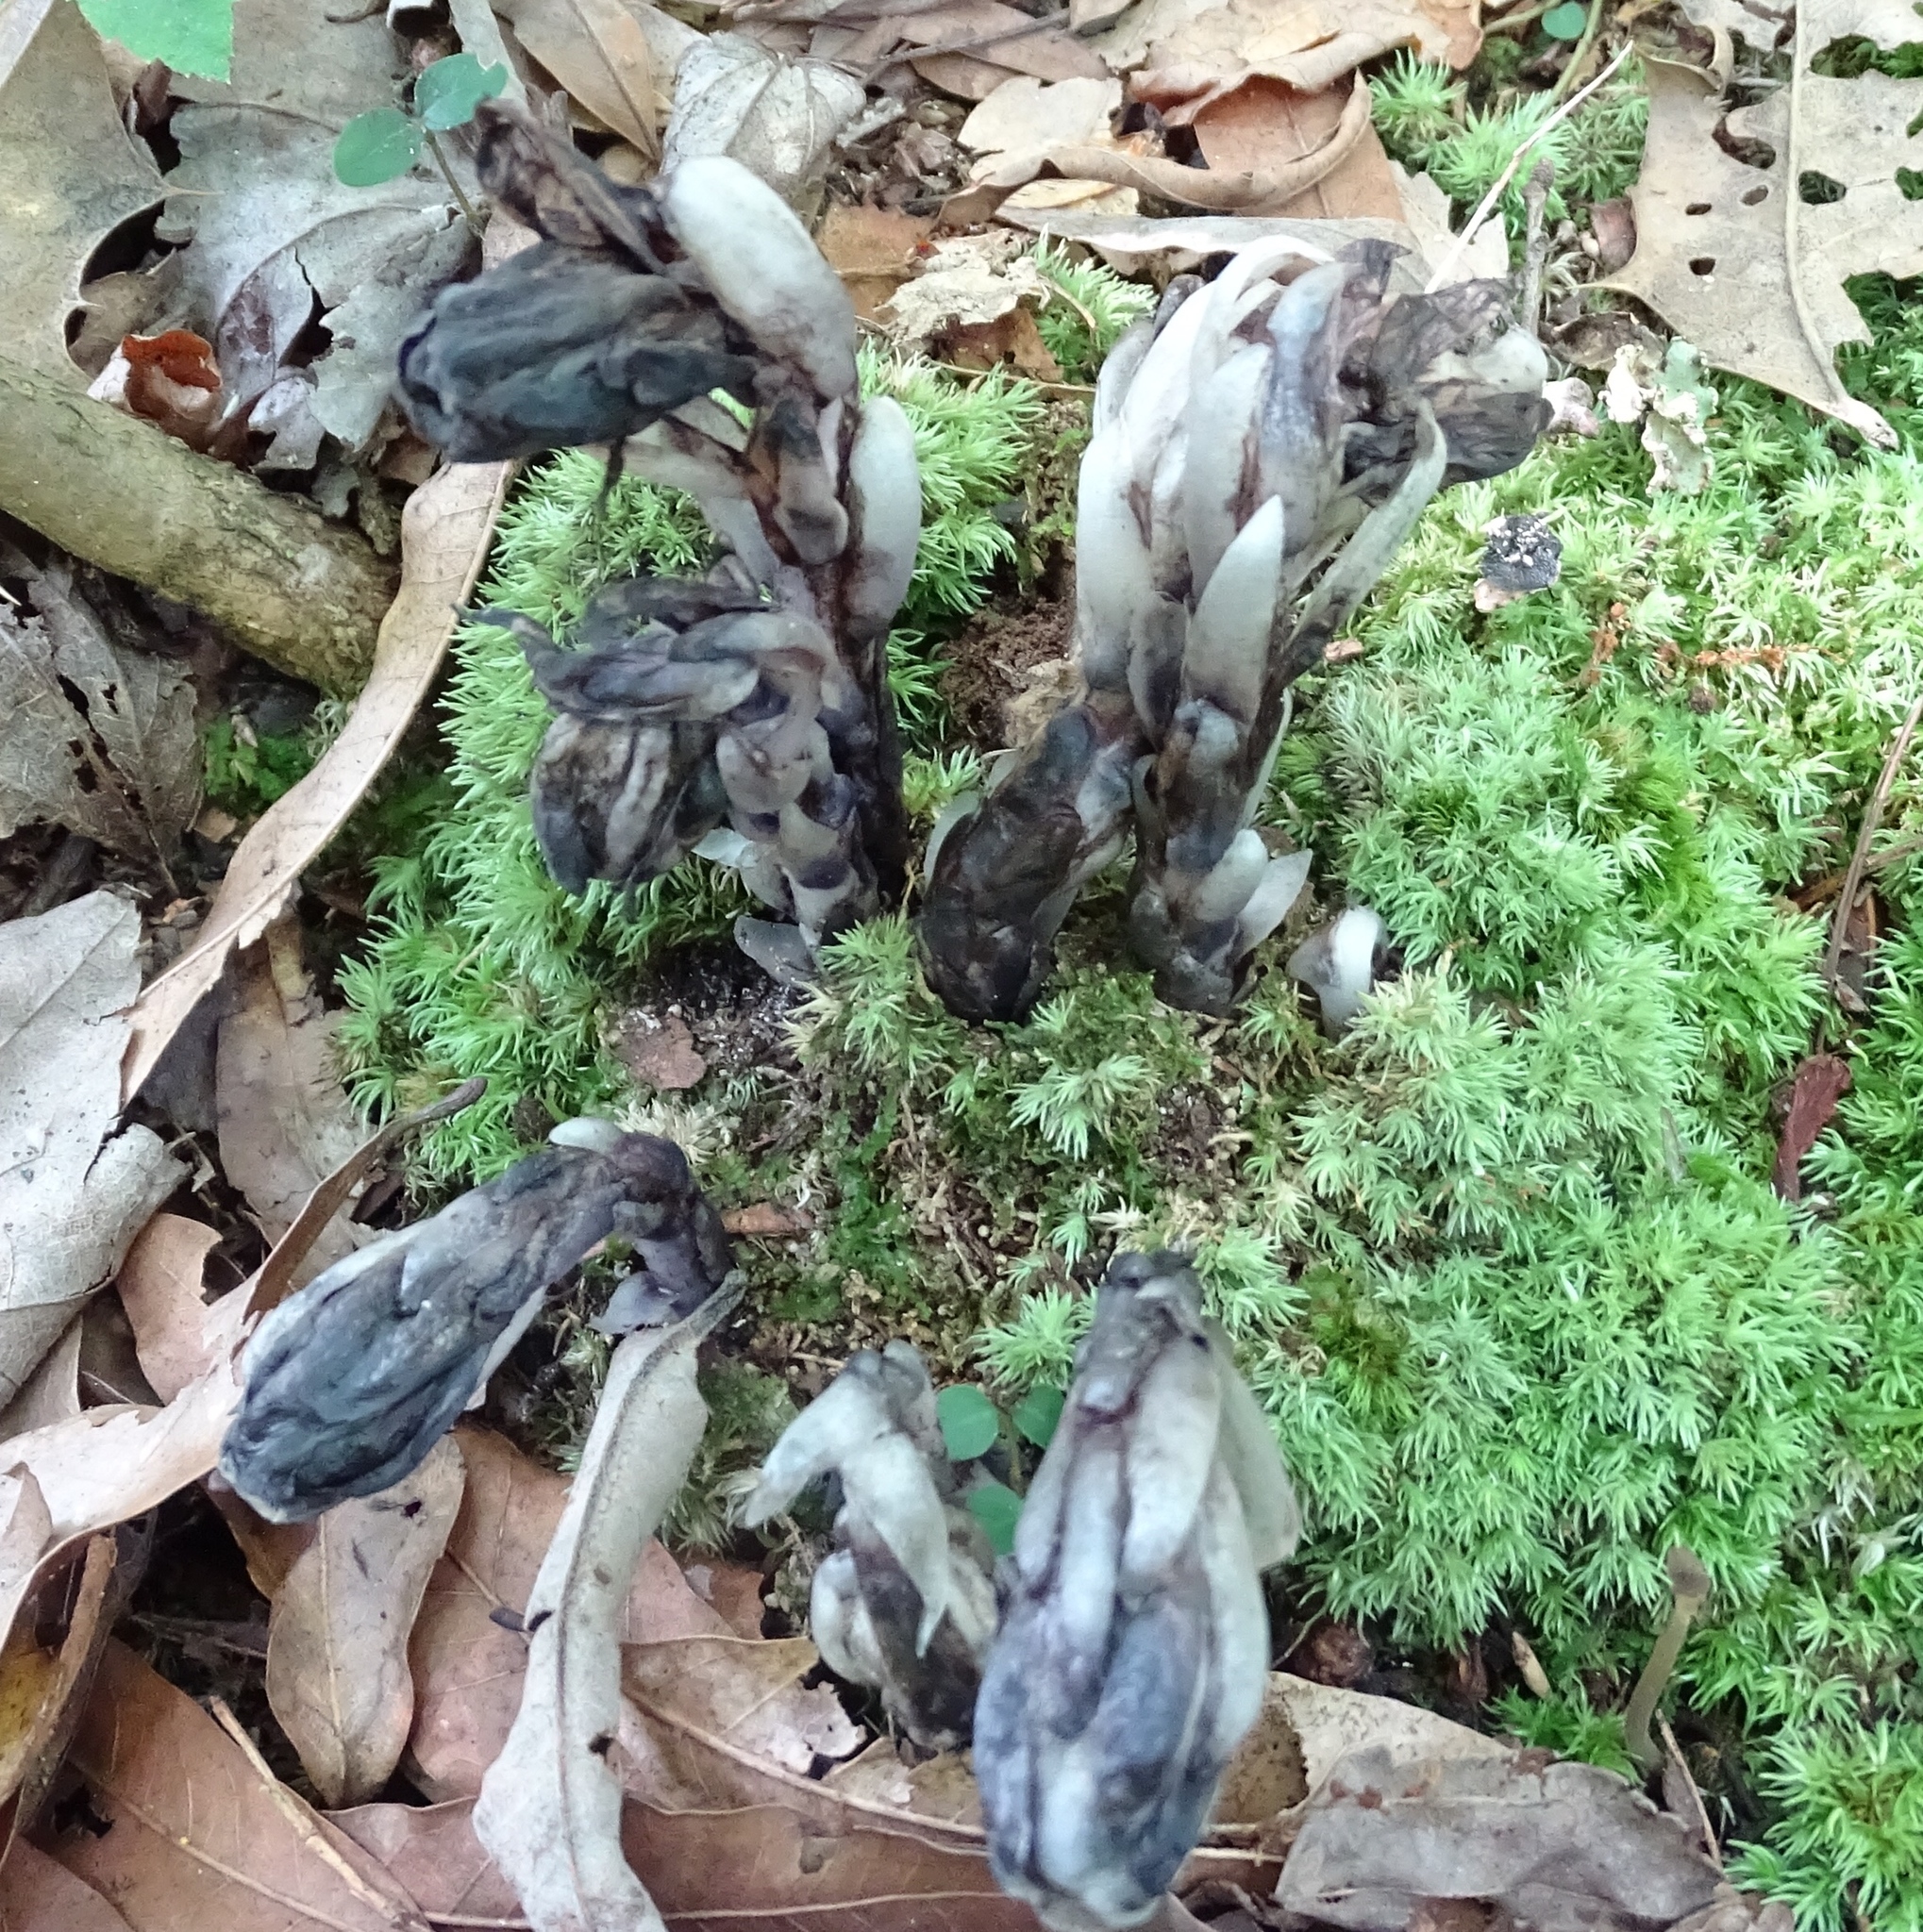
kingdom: Plantae
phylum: Tracheophyta
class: Magnoliopsida
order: Ericales
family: Ericaceae
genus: Monotropa
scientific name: Monotropa uniflora
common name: Convulsion root
